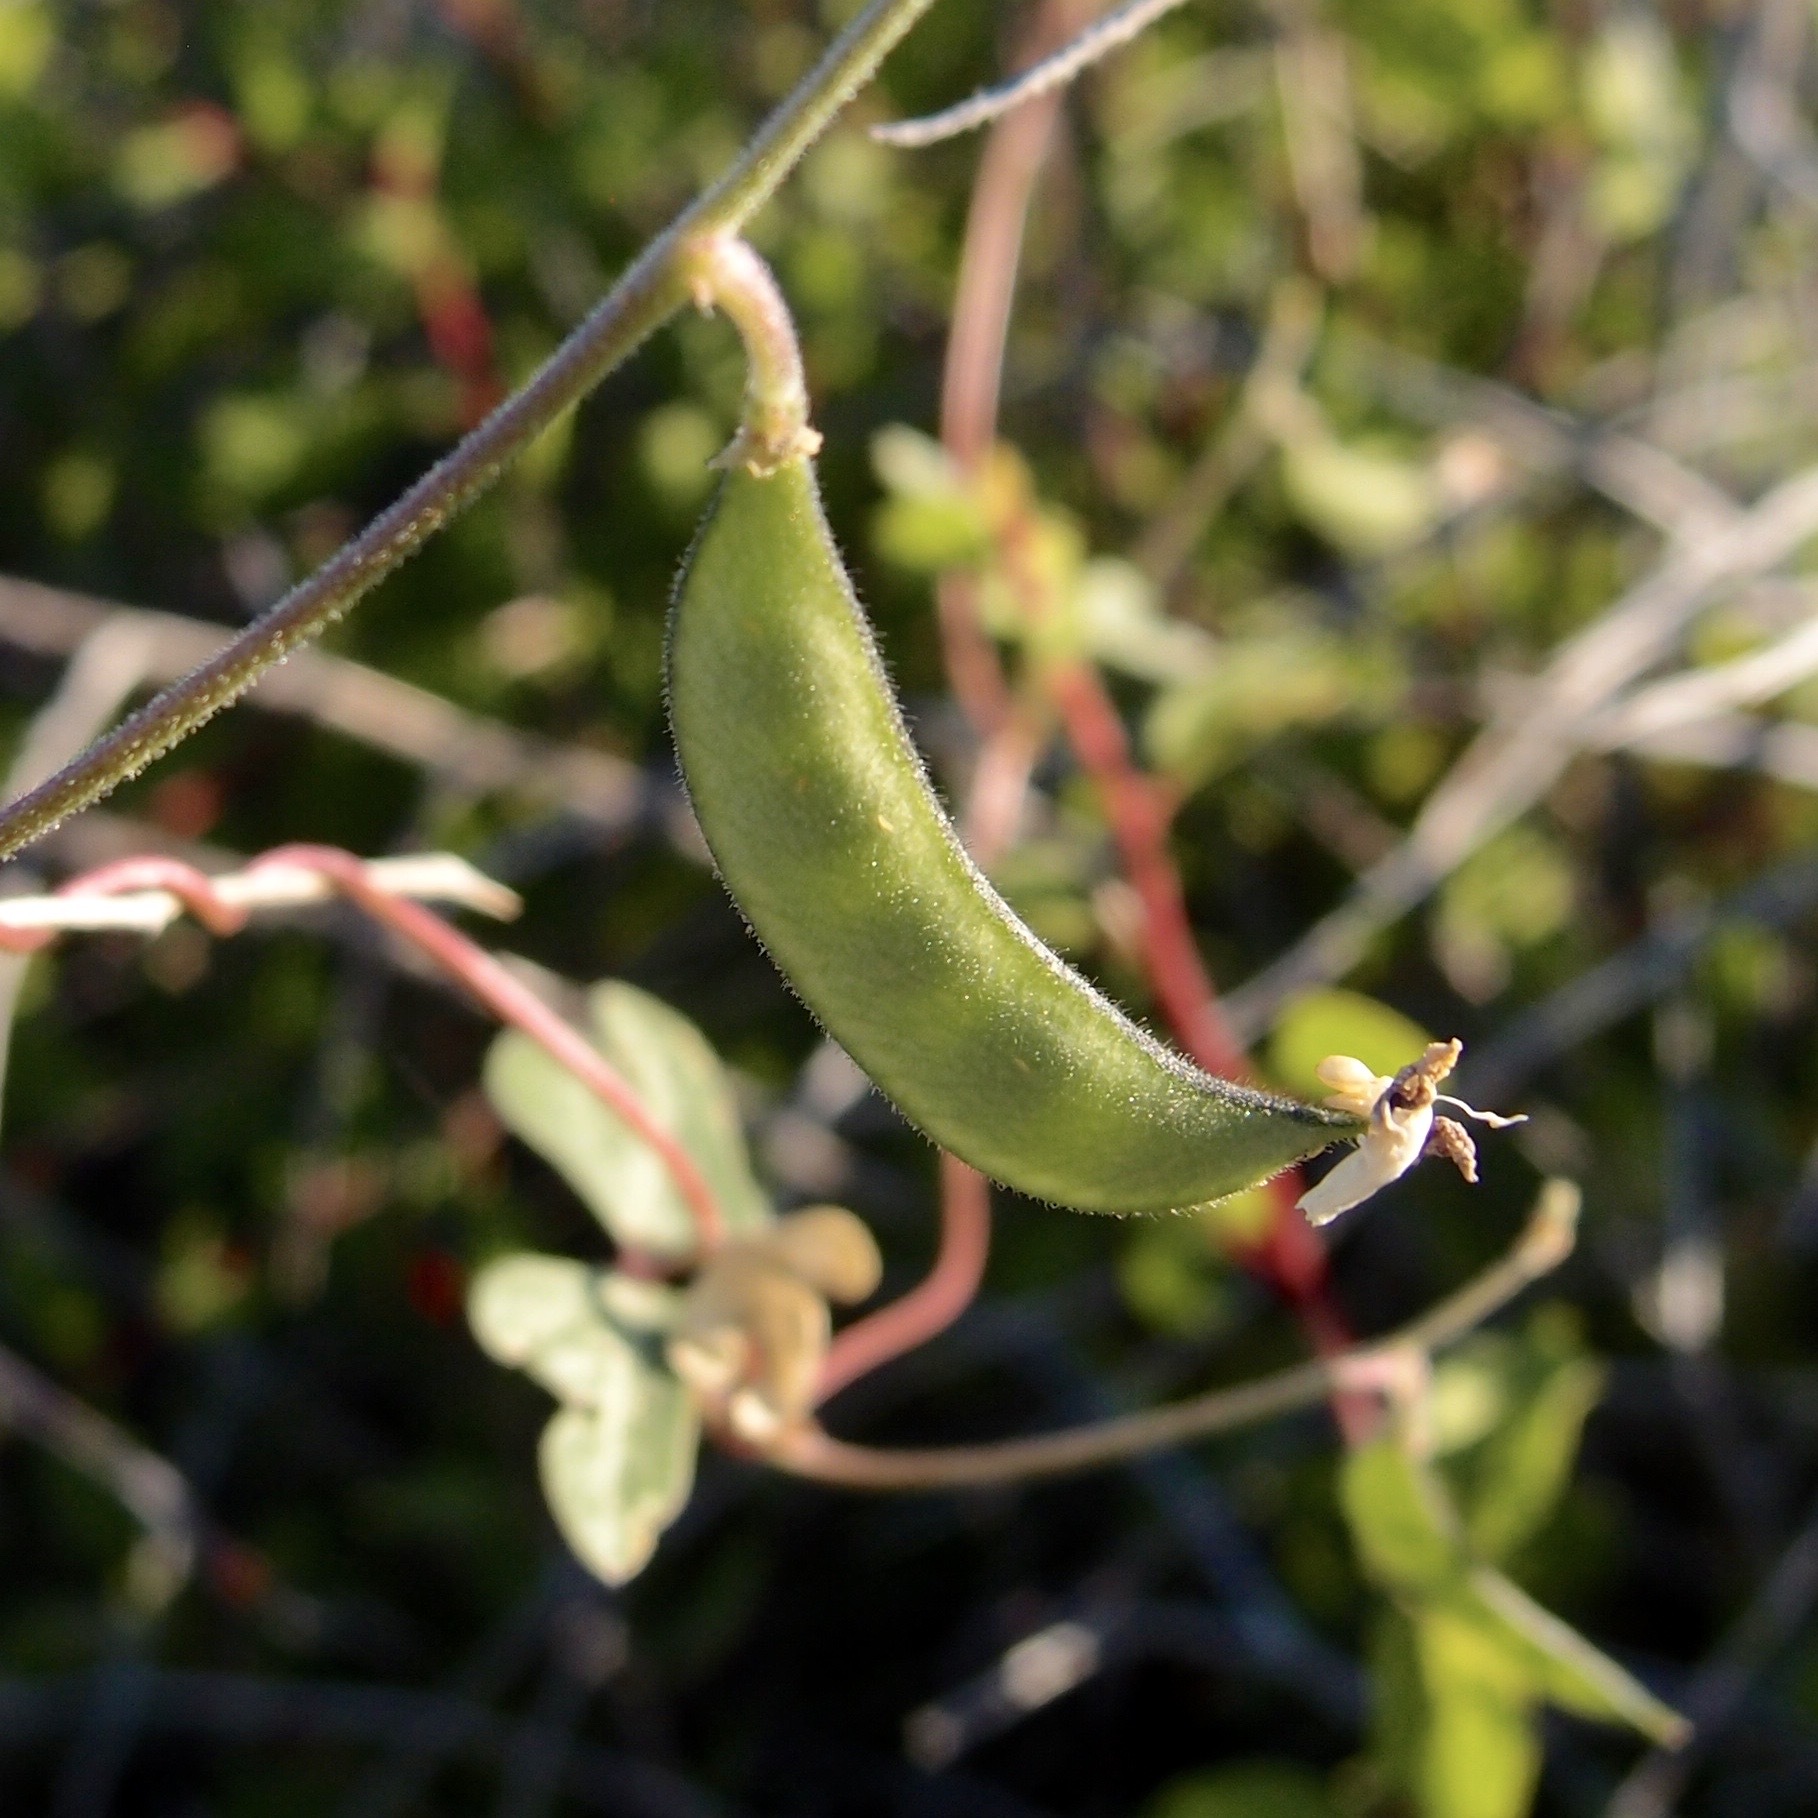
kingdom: Plantae
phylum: Tracheophyta
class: Magnoliopsida
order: Fabales
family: Fabaceae
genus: Phaseolus
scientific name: Phaseolus filiformis
